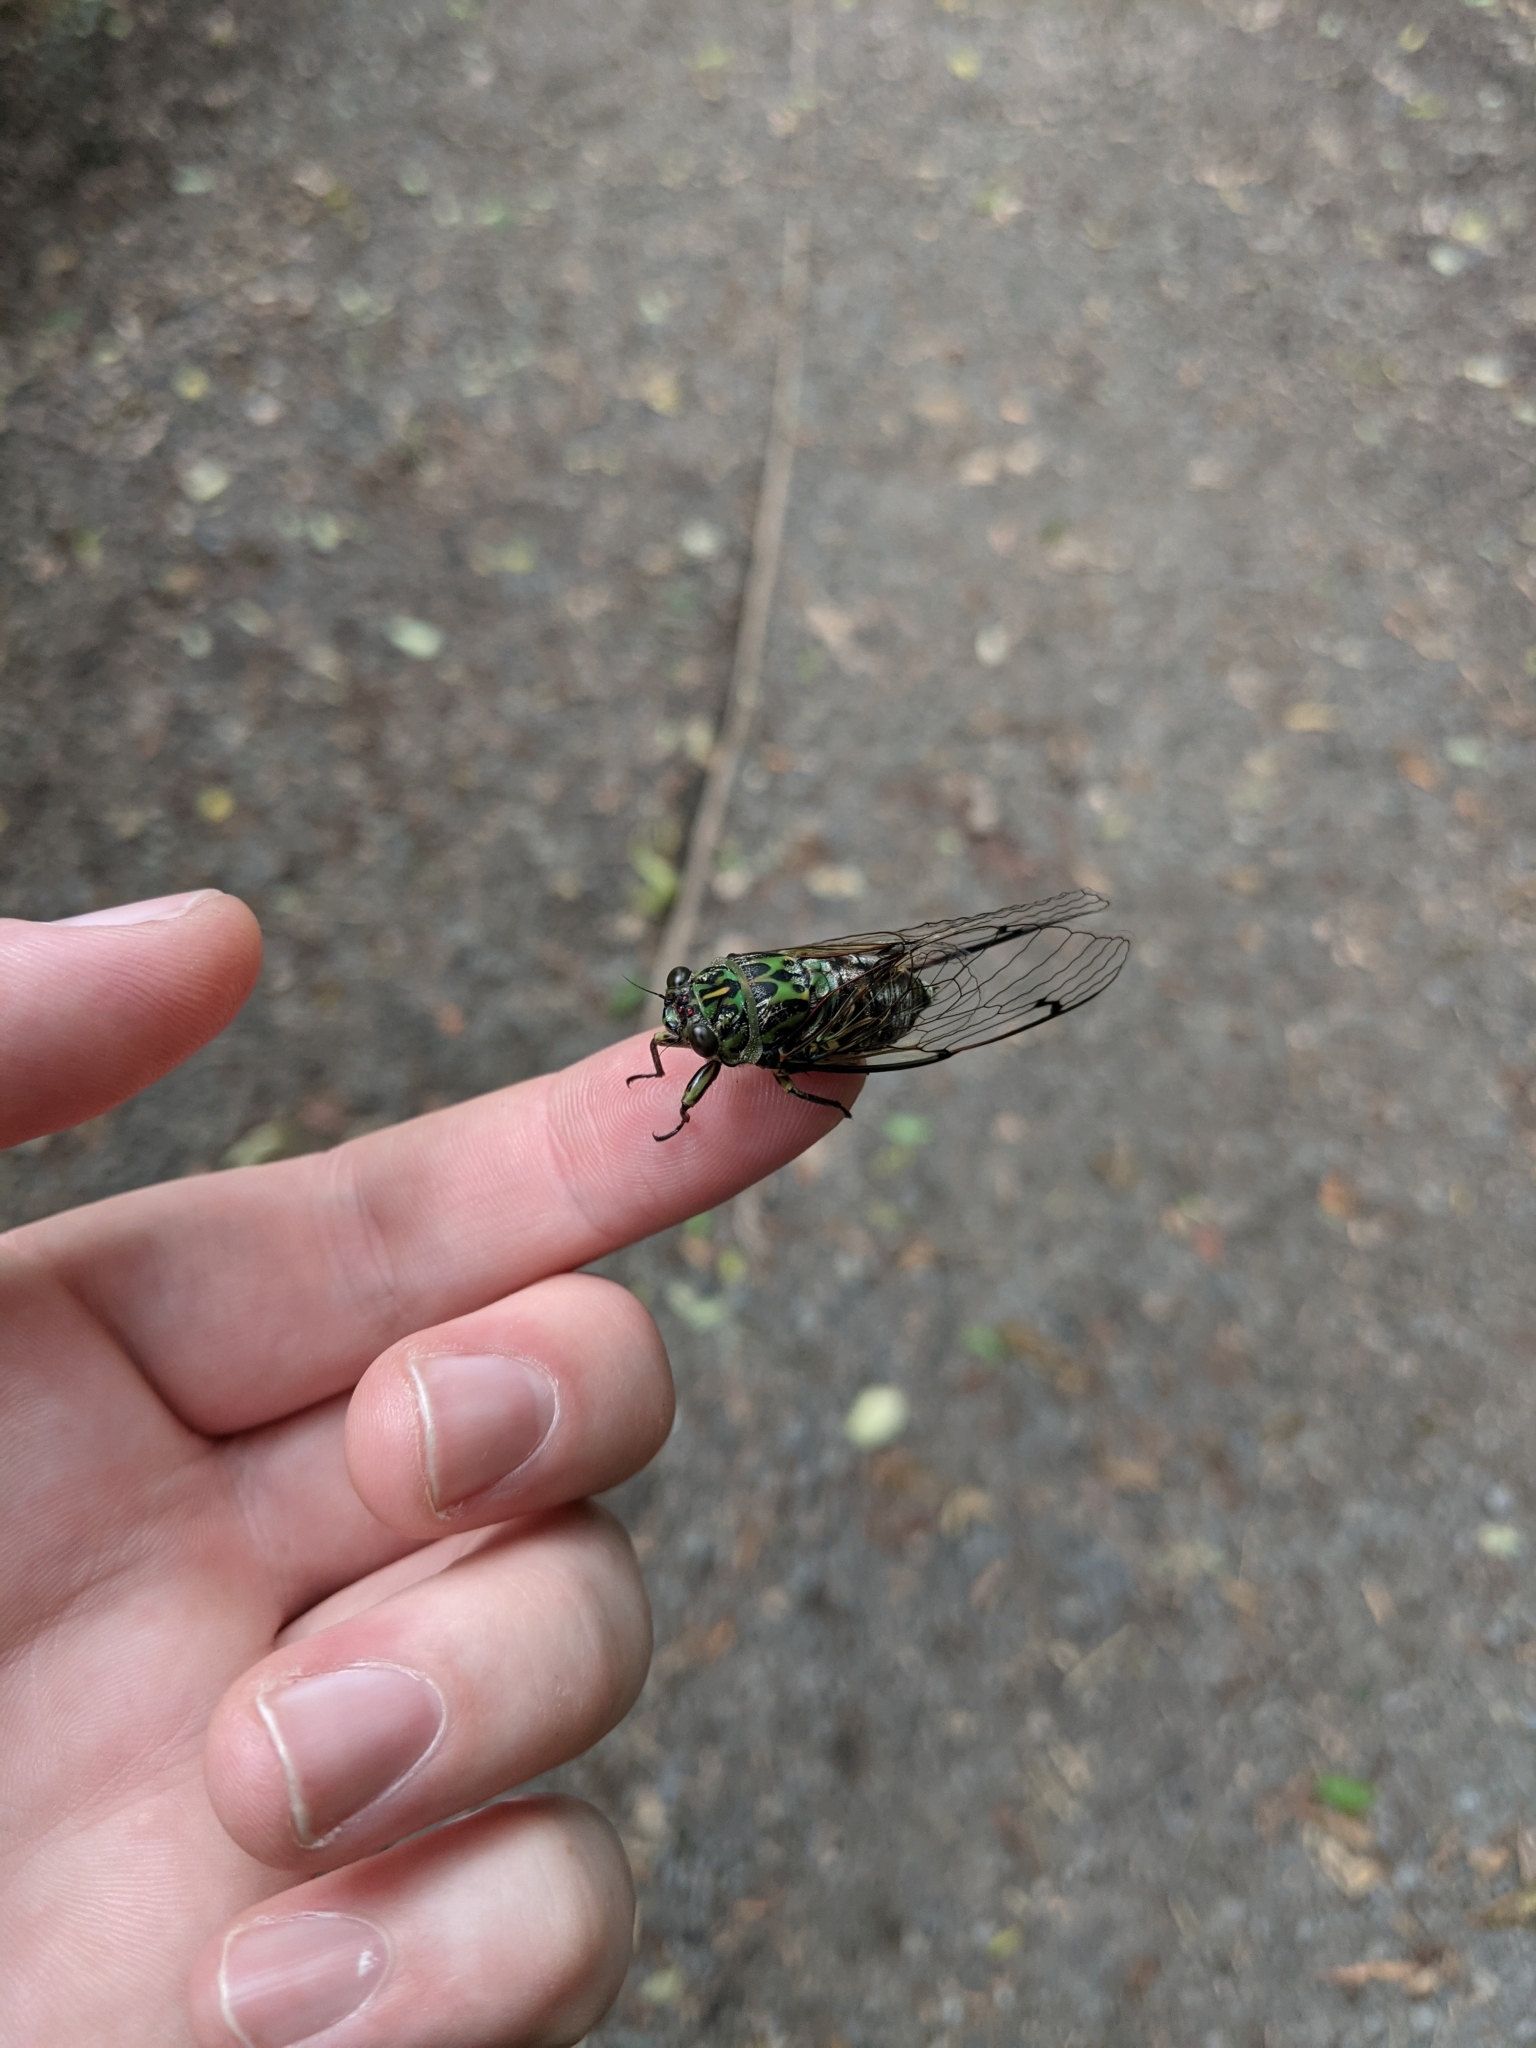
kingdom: Animalia
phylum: Arthropoda
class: Insecta
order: Hemiptera
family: Cicadidae
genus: Amphipsalta
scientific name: Amphipsalta zelandica
